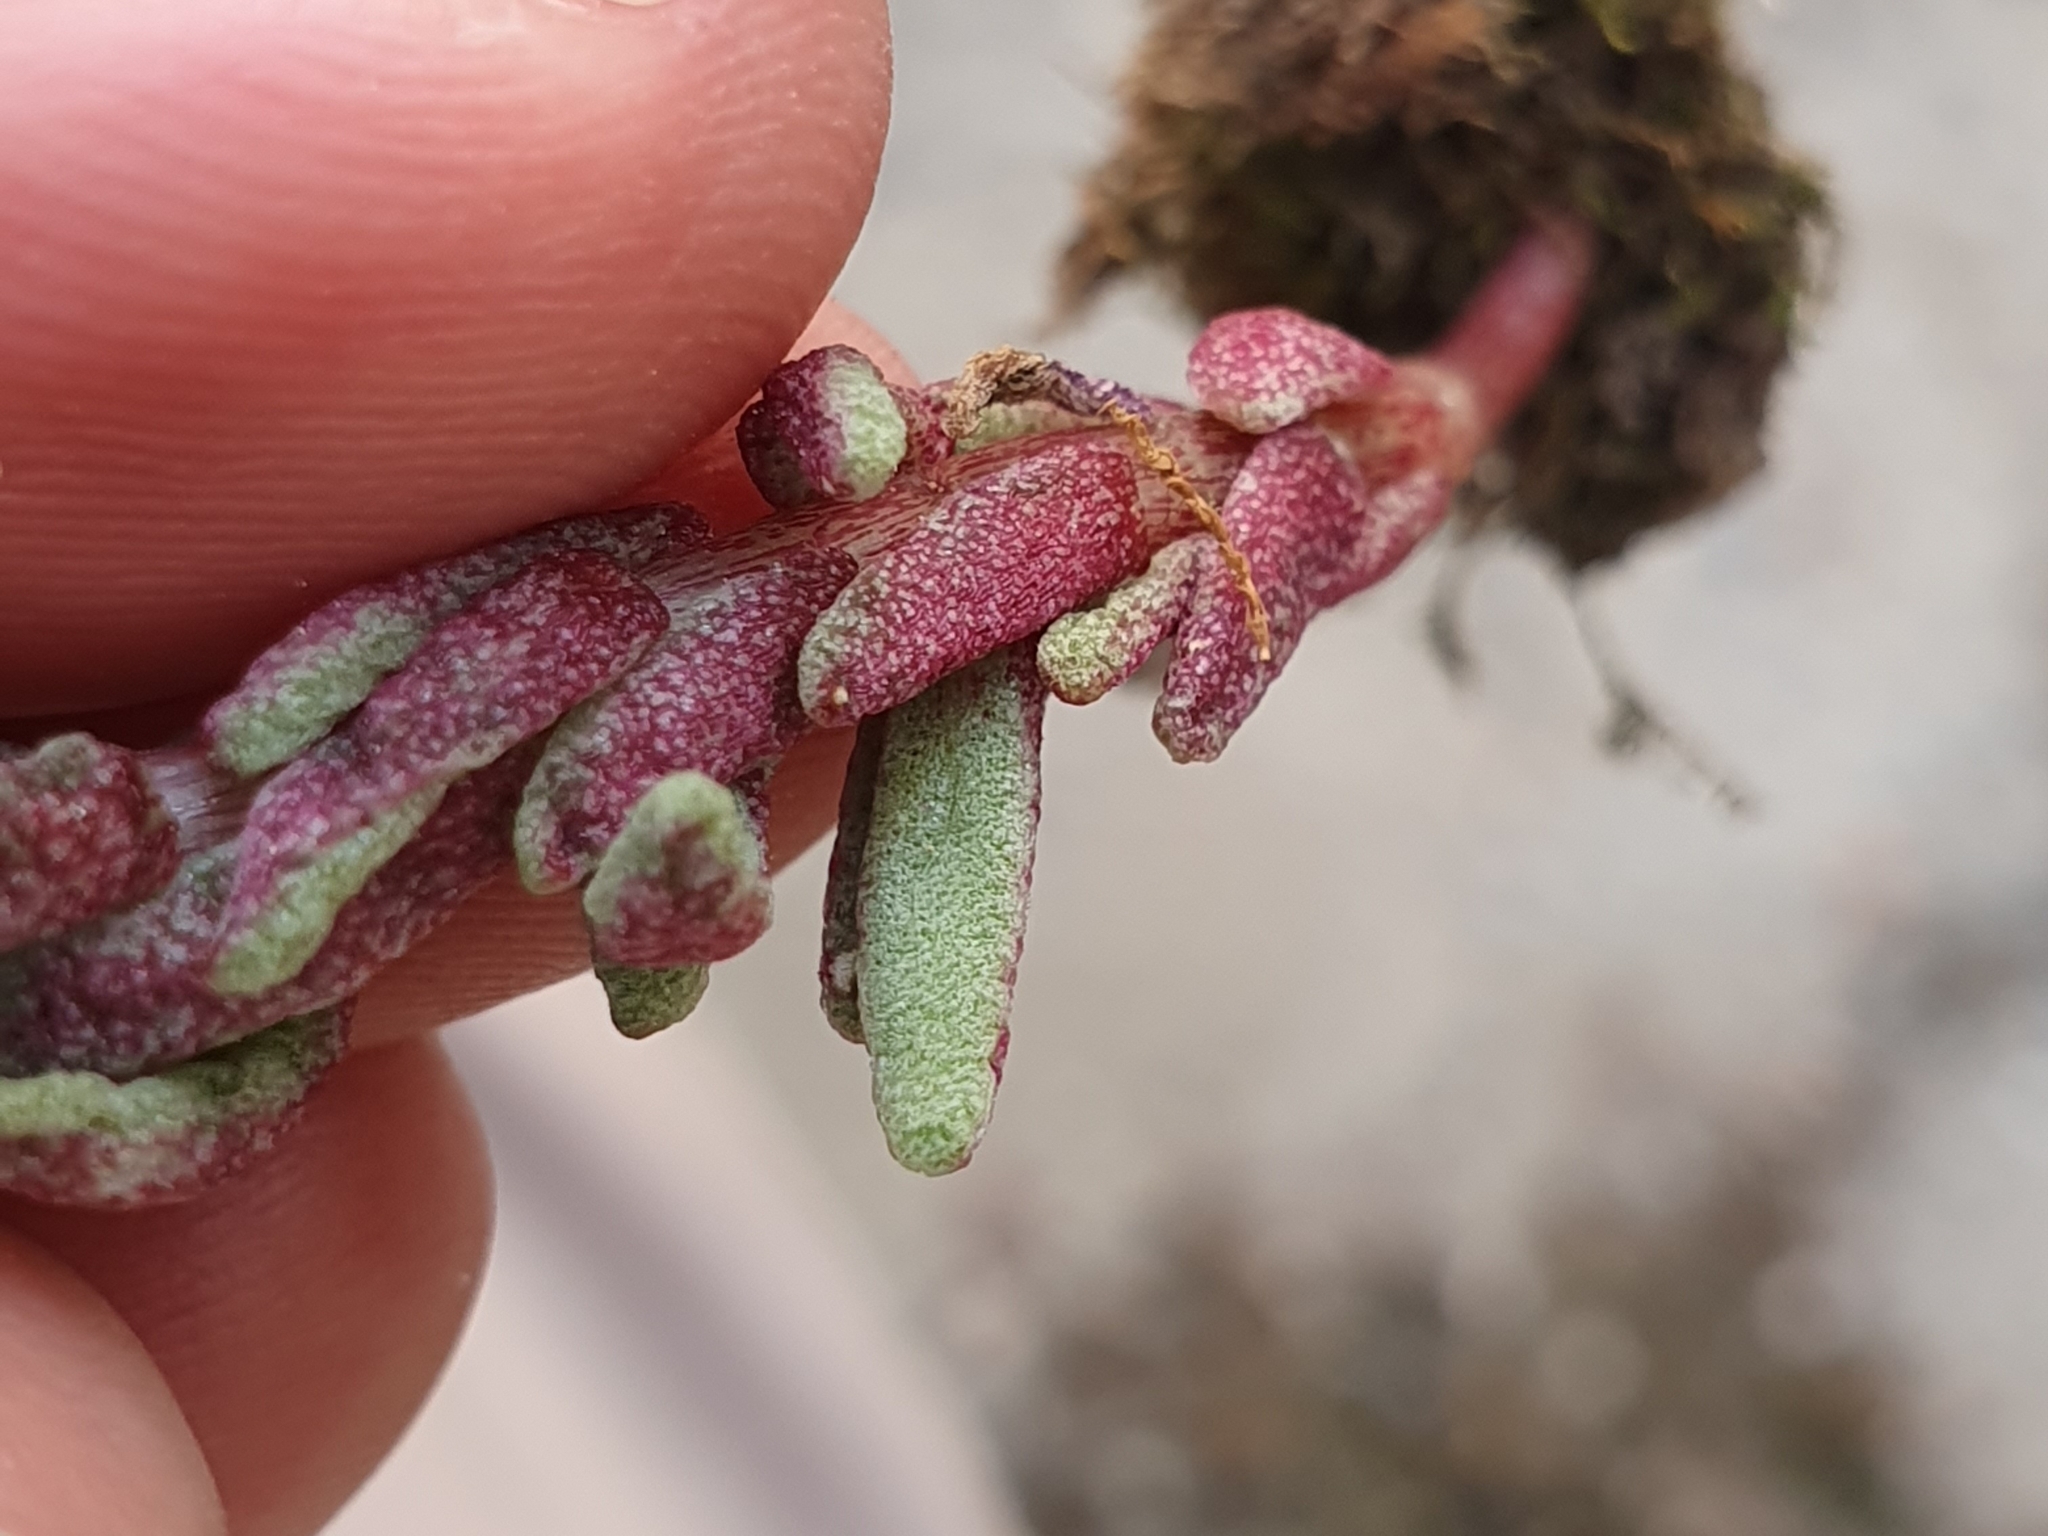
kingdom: Plantae
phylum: Tracheophyta
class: Magnoliopsida
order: Saxifragales
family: Crassulaceae
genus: Sedum
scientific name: Sedum caeruleum
